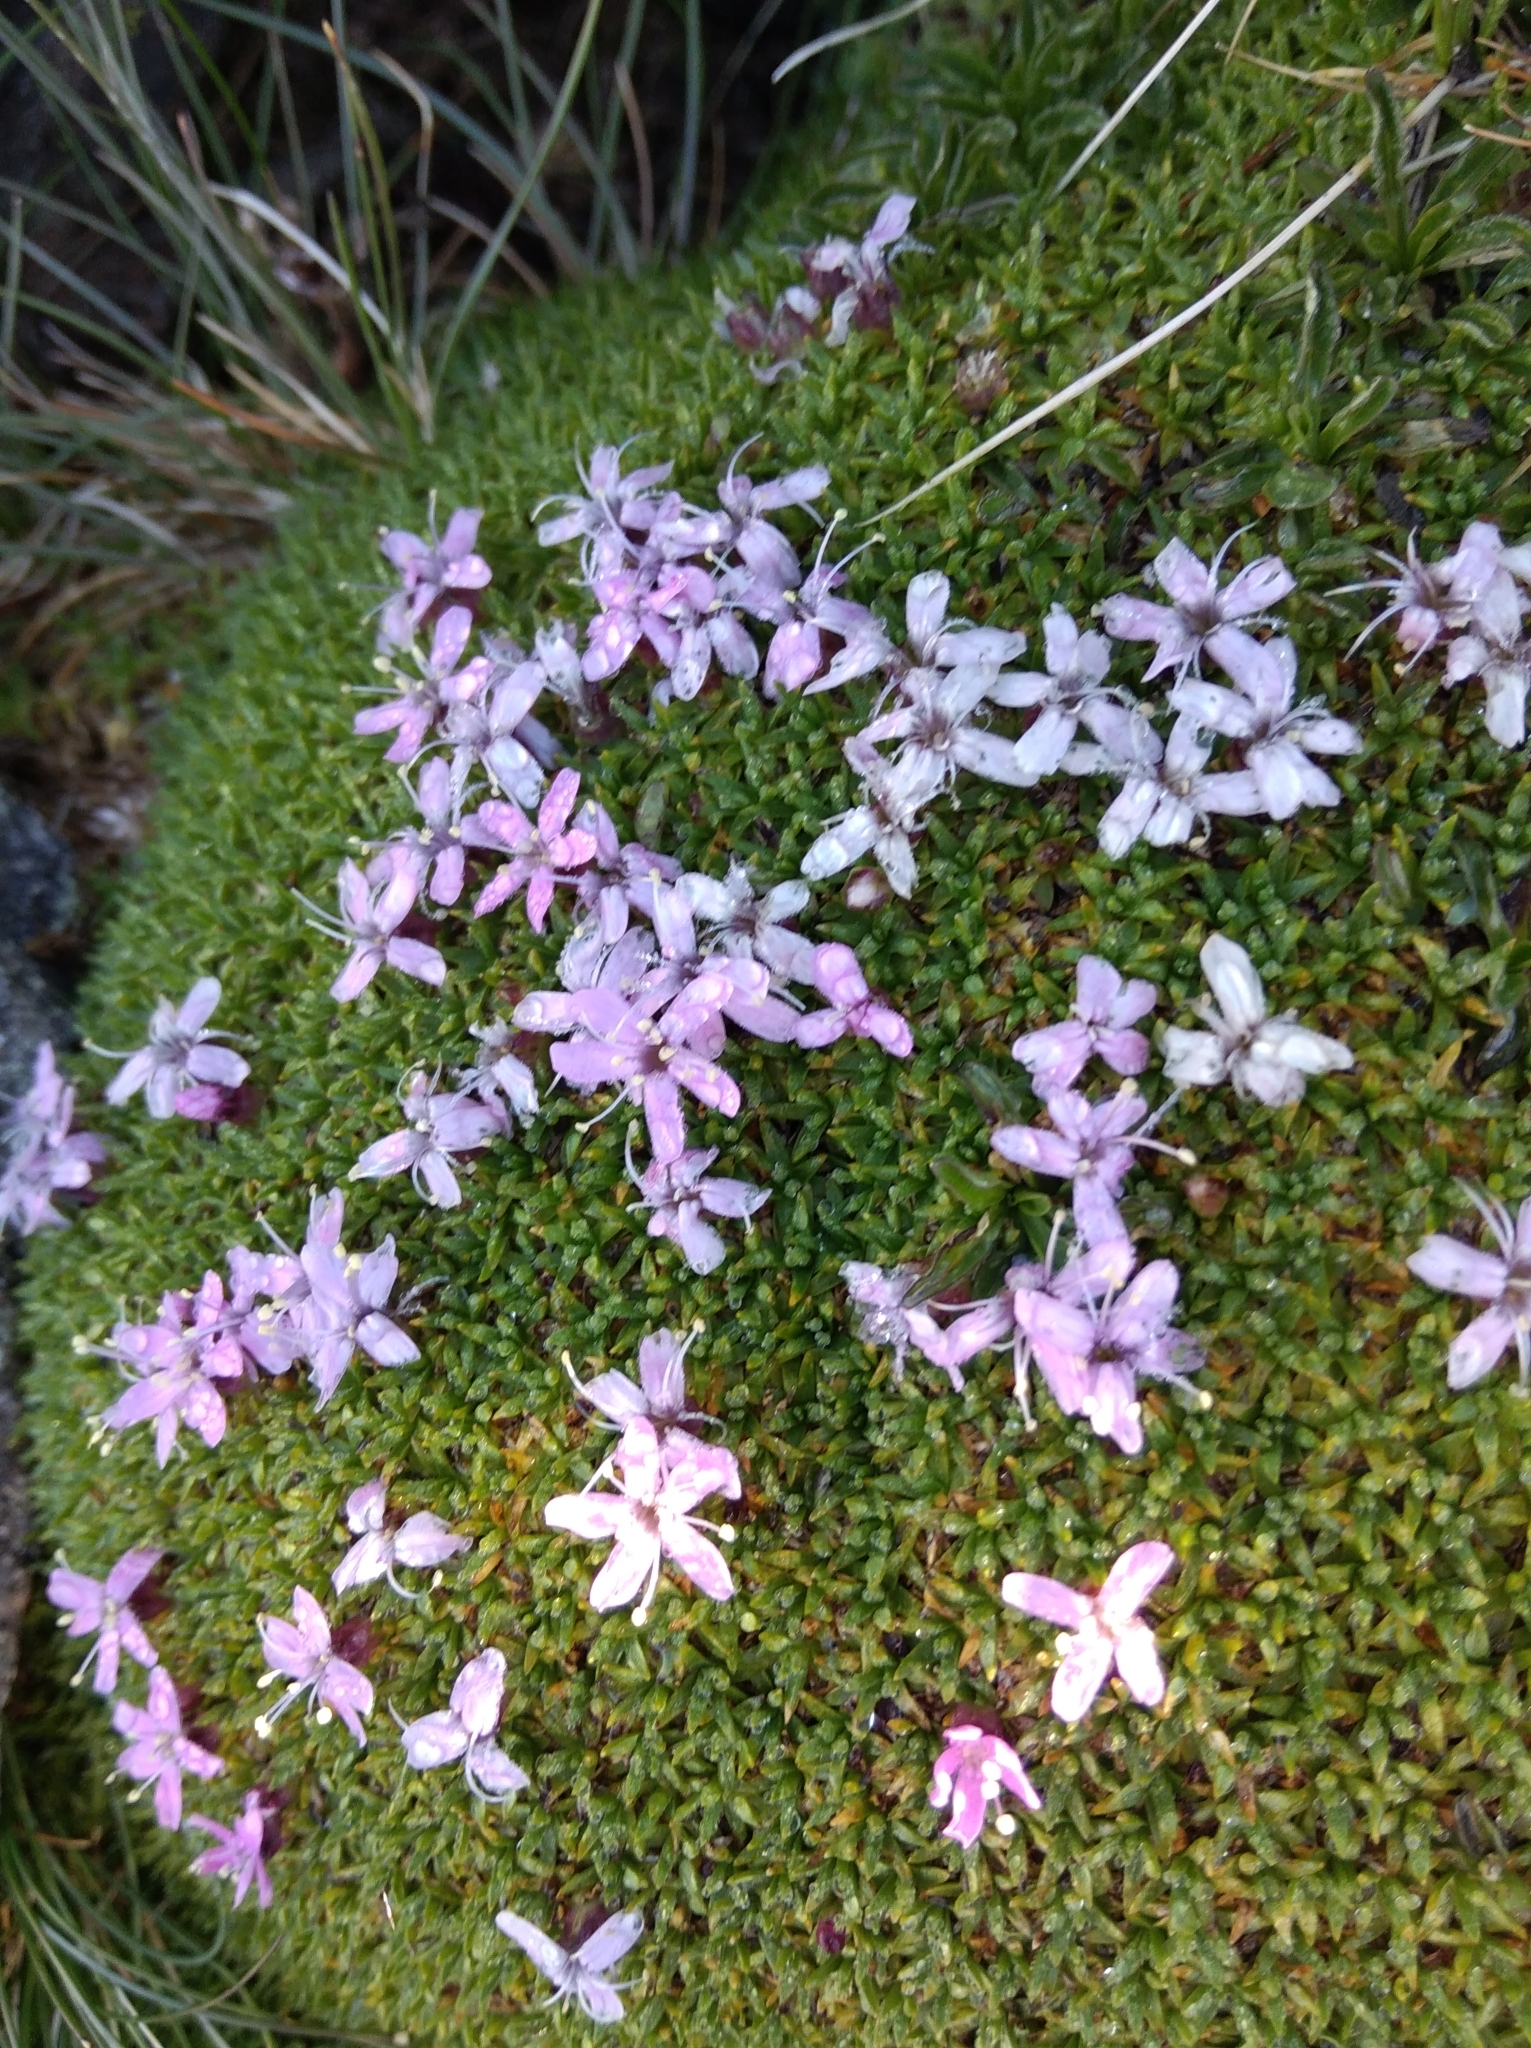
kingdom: Plantae
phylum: Tracheophyta
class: Magnoliopsida
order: Caryophyllales
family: Caryophyllaceae
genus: Silene
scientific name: Silene acaulis
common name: Moss campion
